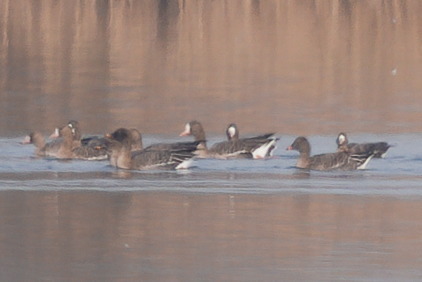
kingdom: Animalia
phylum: Chordata
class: Aves
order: Anseriformes
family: Anatidae
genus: Anser
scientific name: Anser serrirostris
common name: Tundra bean goose
